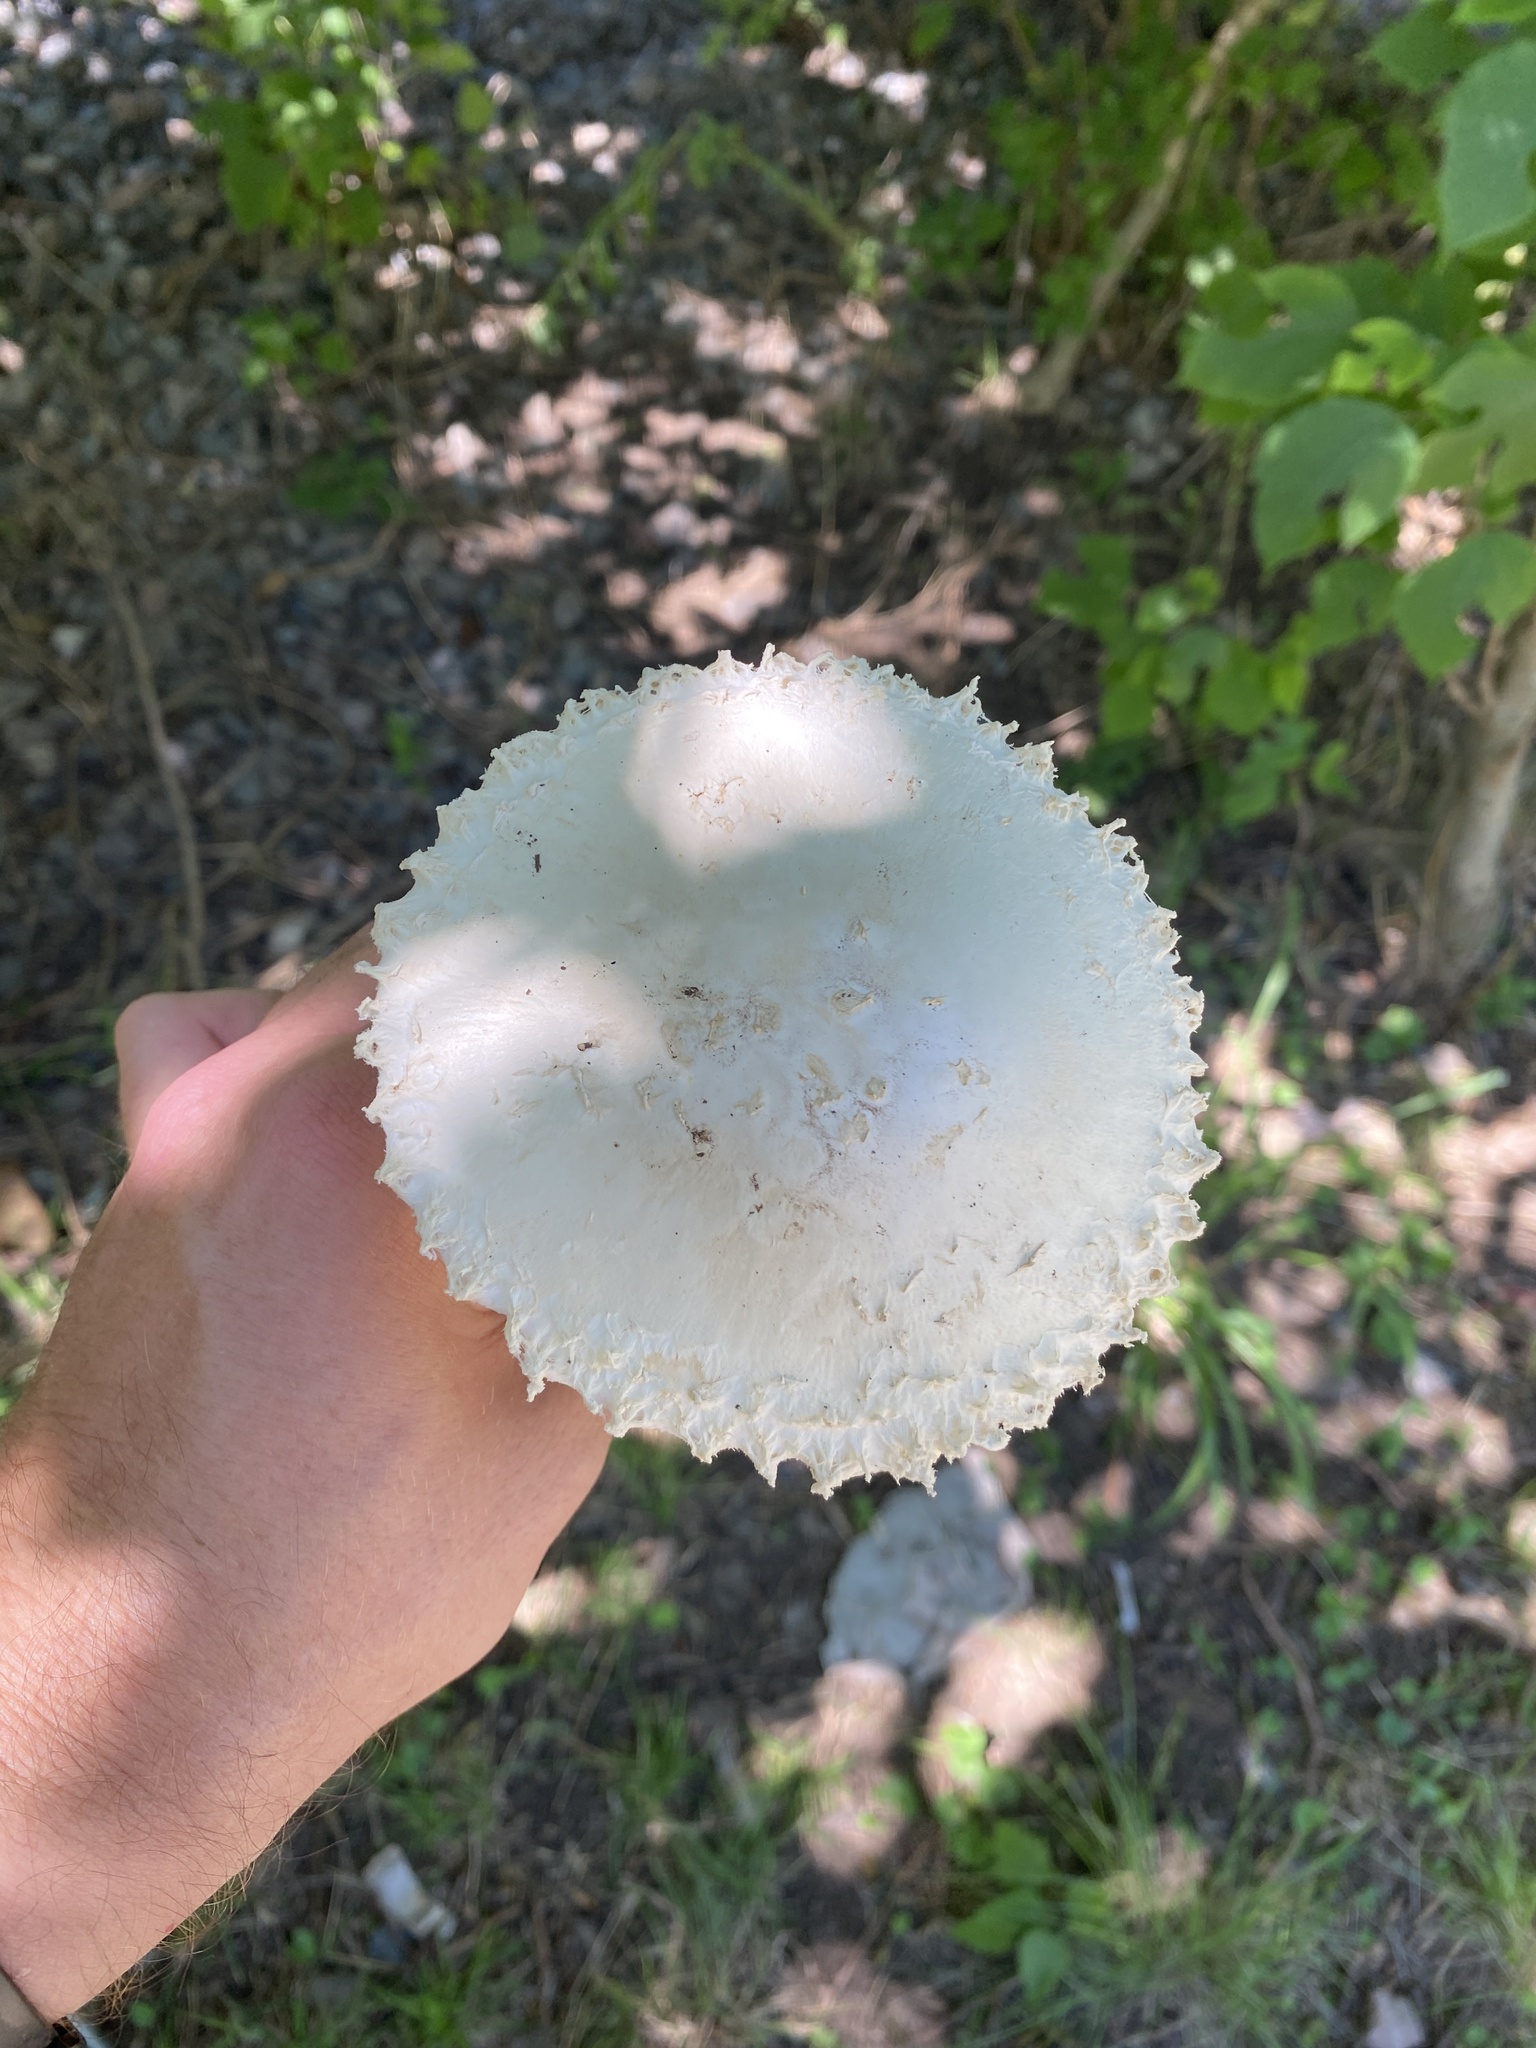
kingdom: Fungi
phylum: Basidiomycota
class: Agaricomycetes
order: Agaricales
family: Amanitaceae
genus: Aspidella
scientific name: Aspidella foetens
